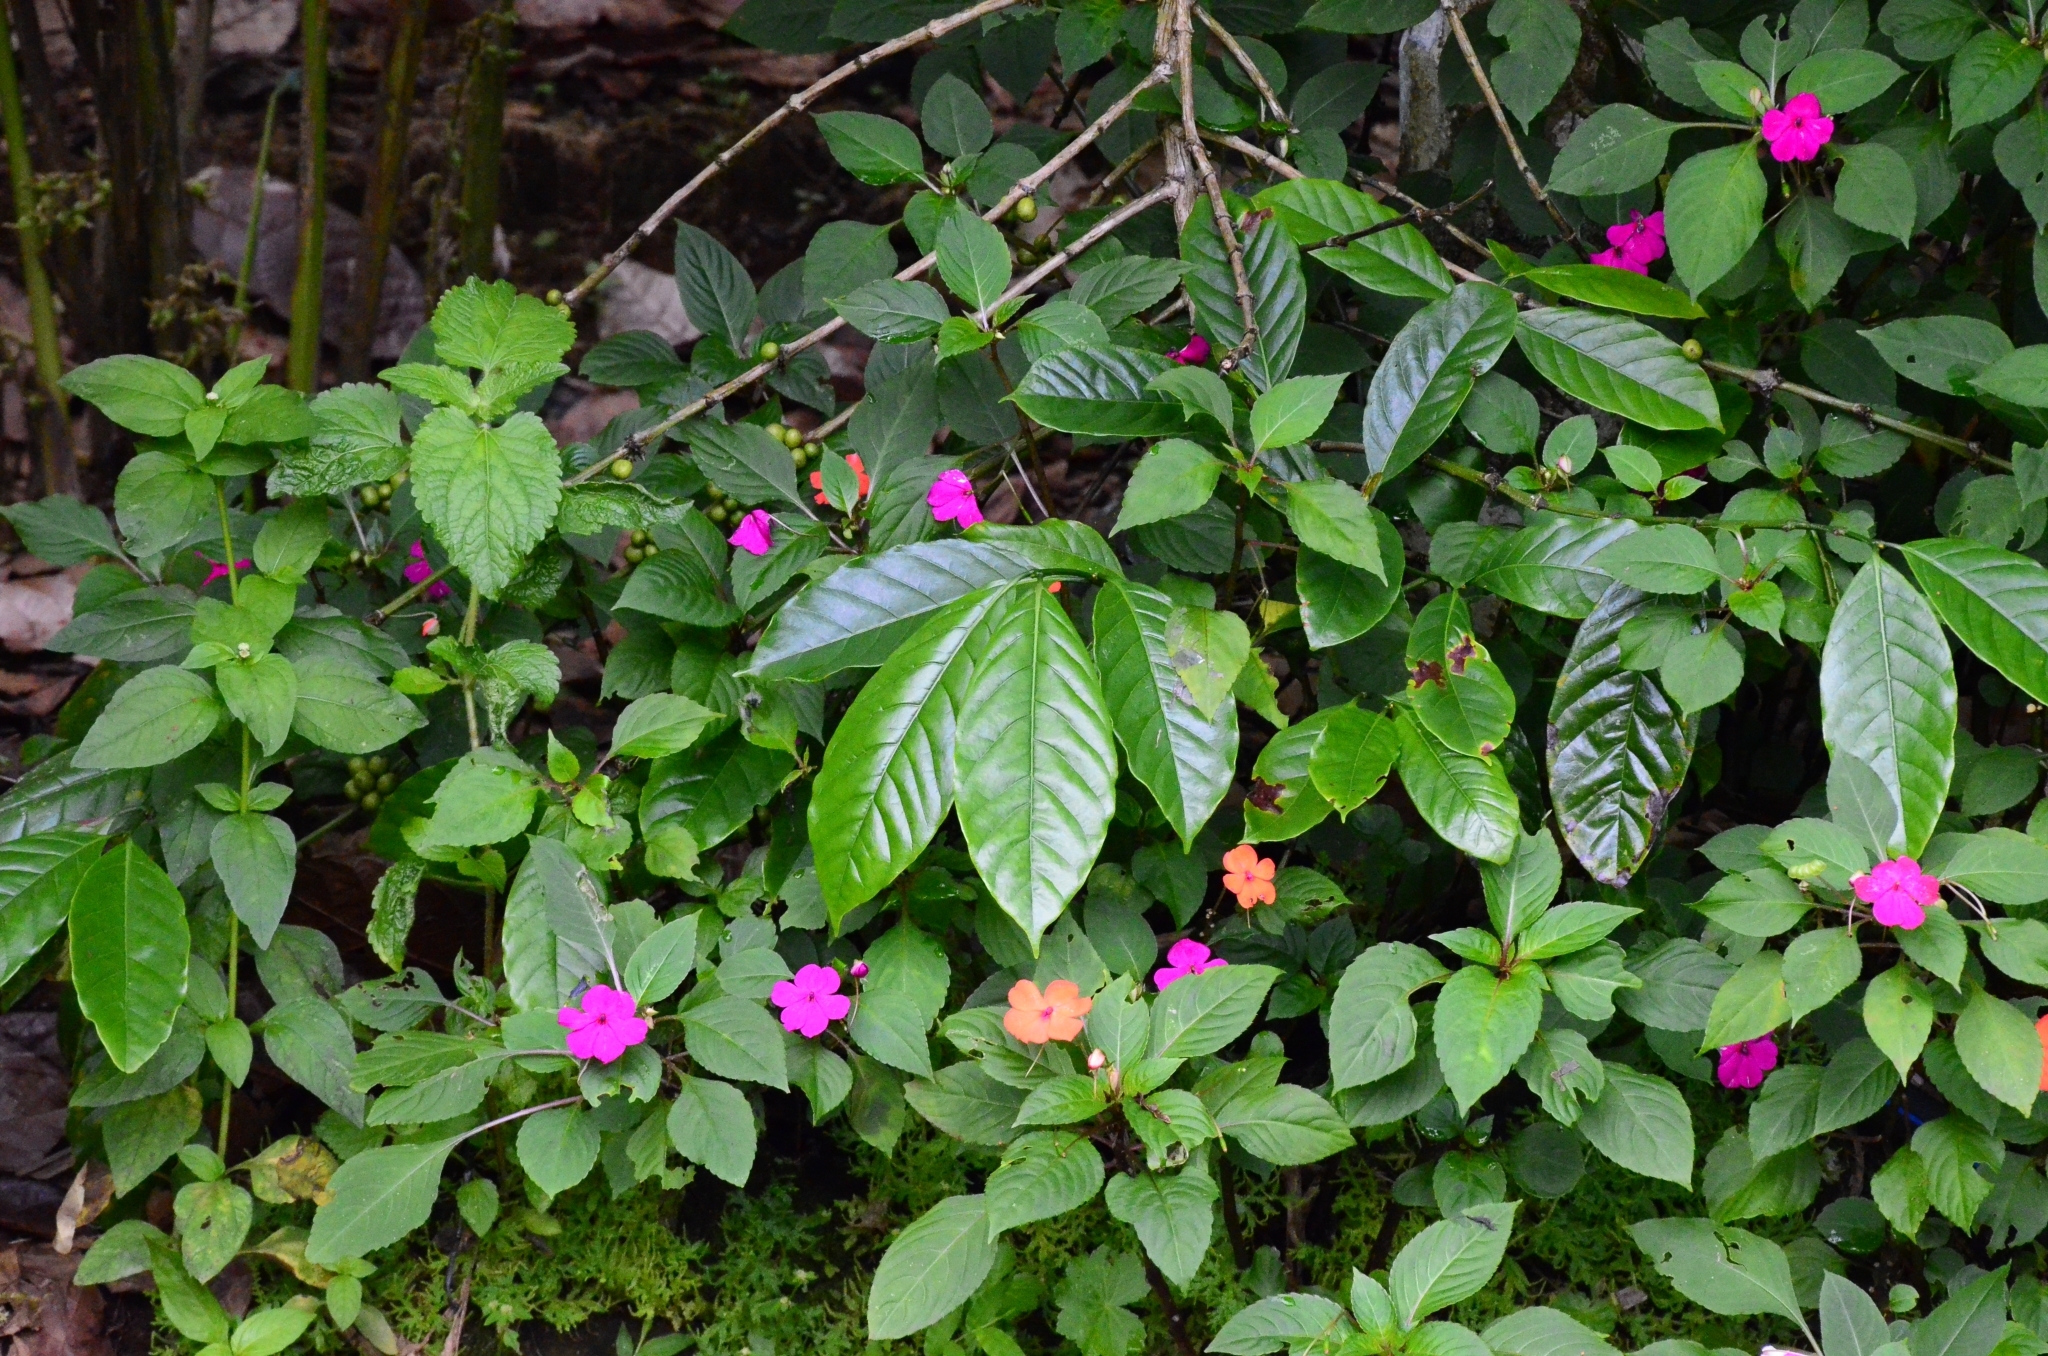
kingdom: Plantae
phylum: Tracheophyta
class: Magnoliopsida
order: Ericales
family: Balsaminaceae
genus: Impatiens
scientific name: Impatiens walleriana
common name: Buzzy lizzy
